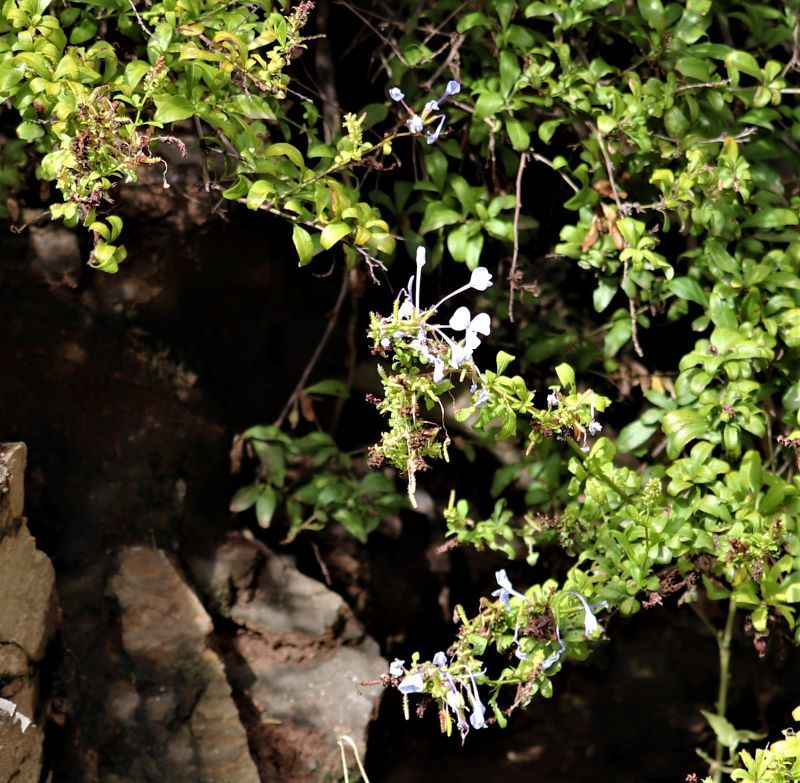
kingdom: Plantae
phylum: Tracheophyta
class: Magnoliopsida
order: Caryophyllales
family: Plumbaginaceae
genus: Plumbago
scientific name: Plumbago auriculata
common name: Cape leadwort
